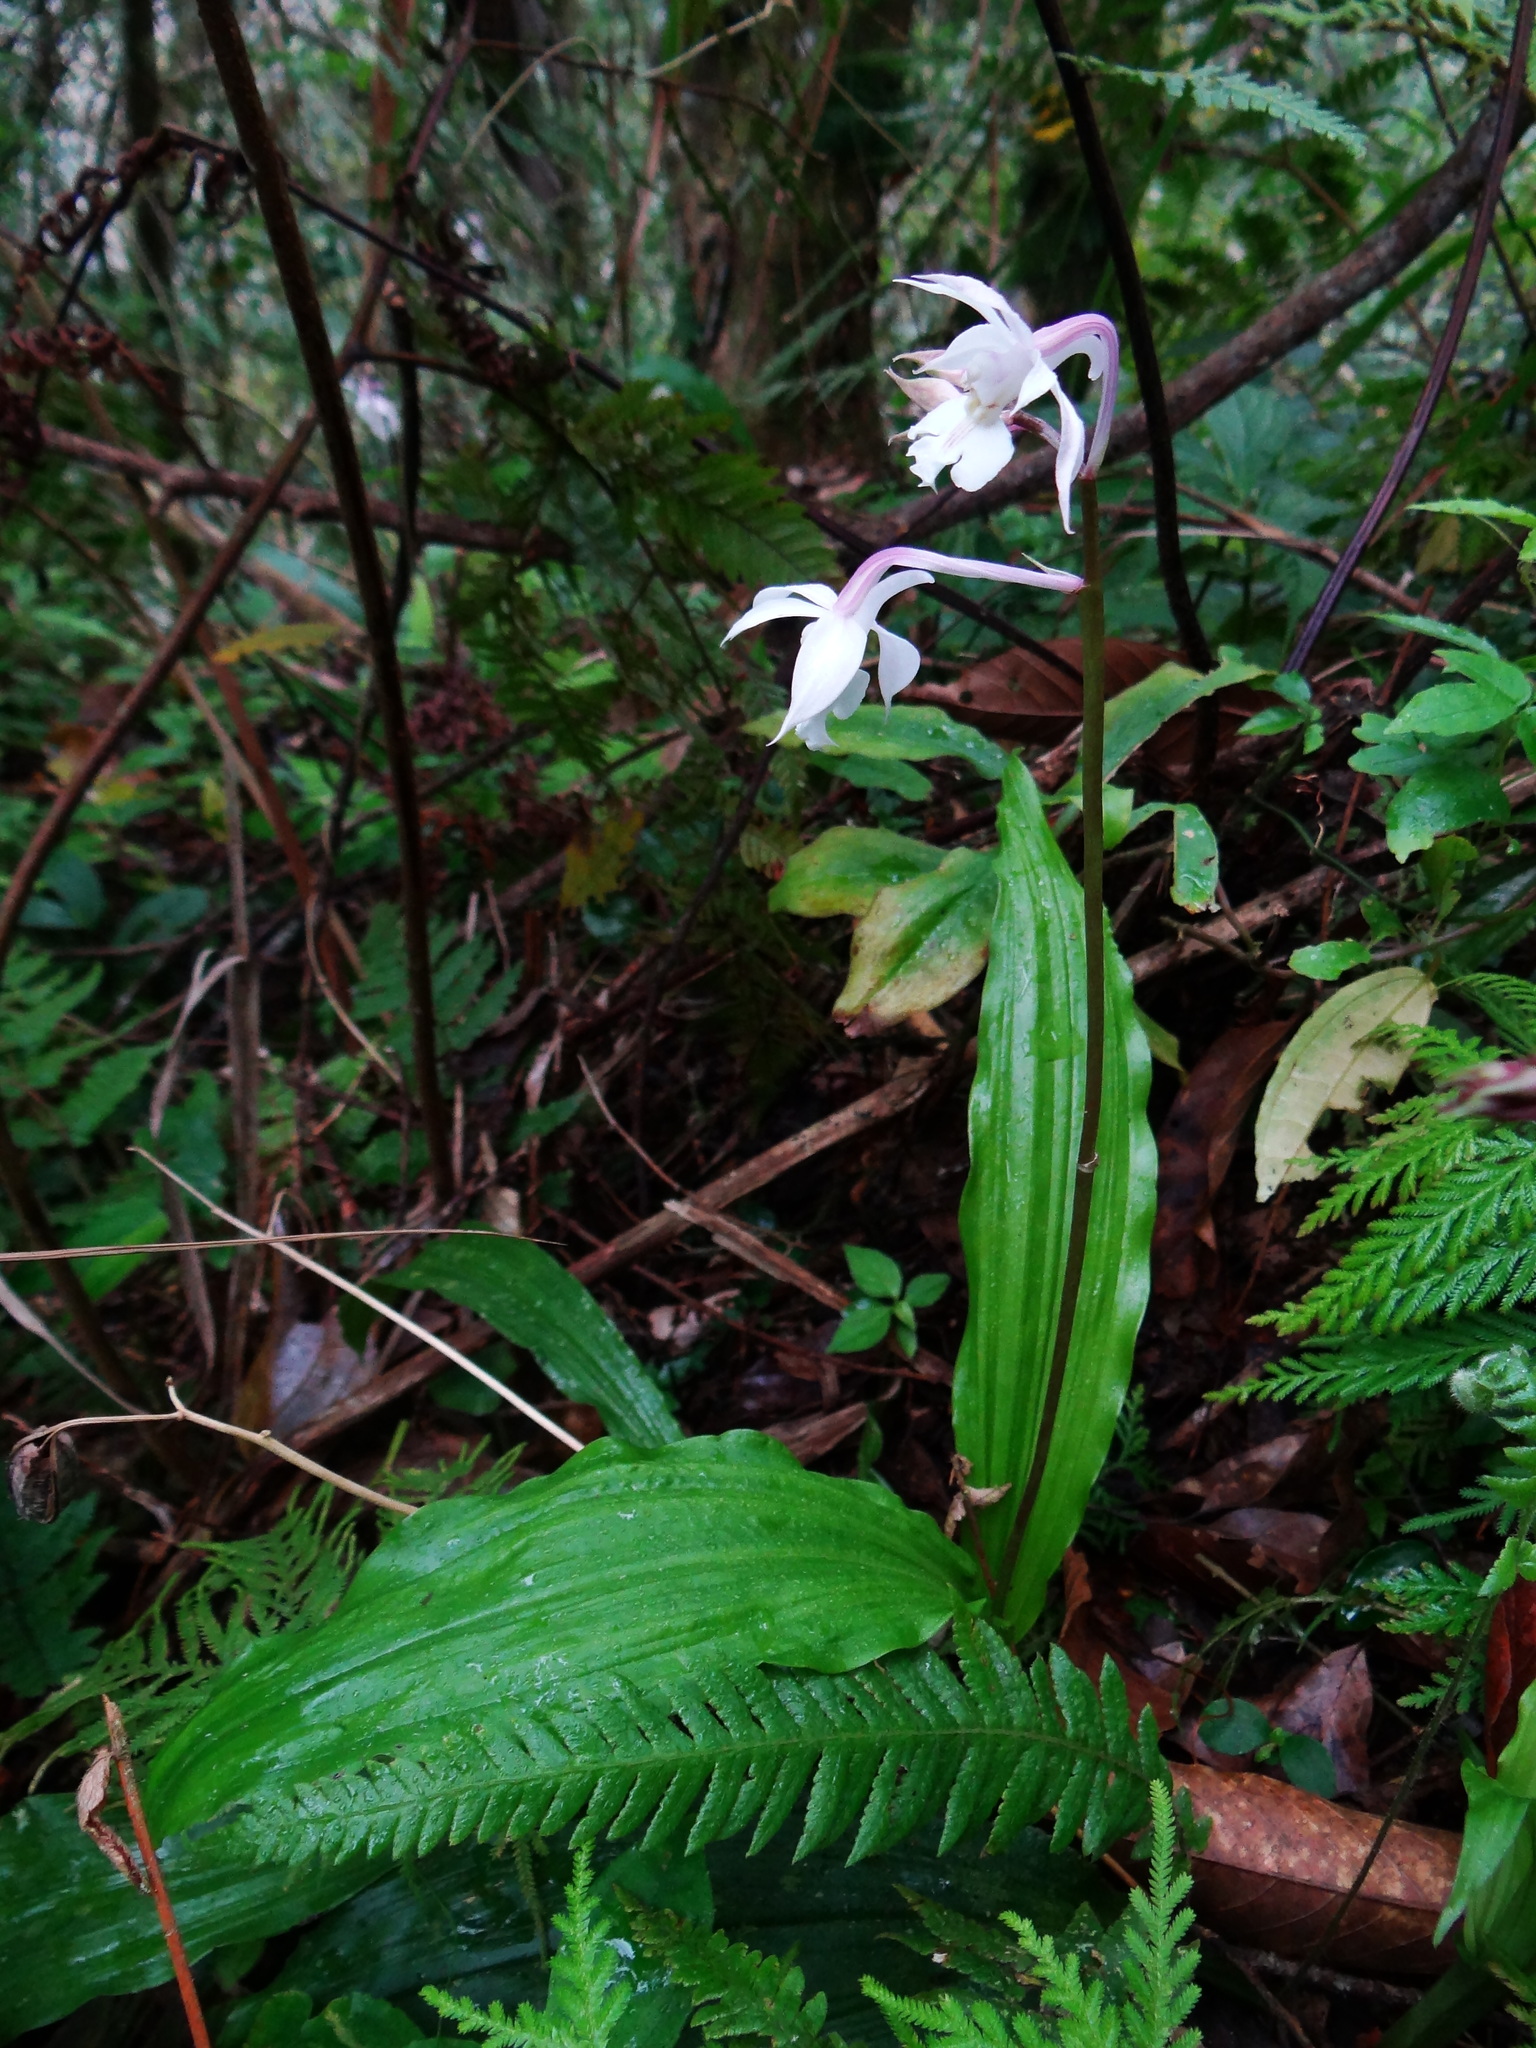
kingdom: Plantae
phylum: Tracheophyta
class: Liliopsida
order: Asparagales
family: Orchidaceae
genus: Calanthe
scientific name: Calanthe arisanensis
